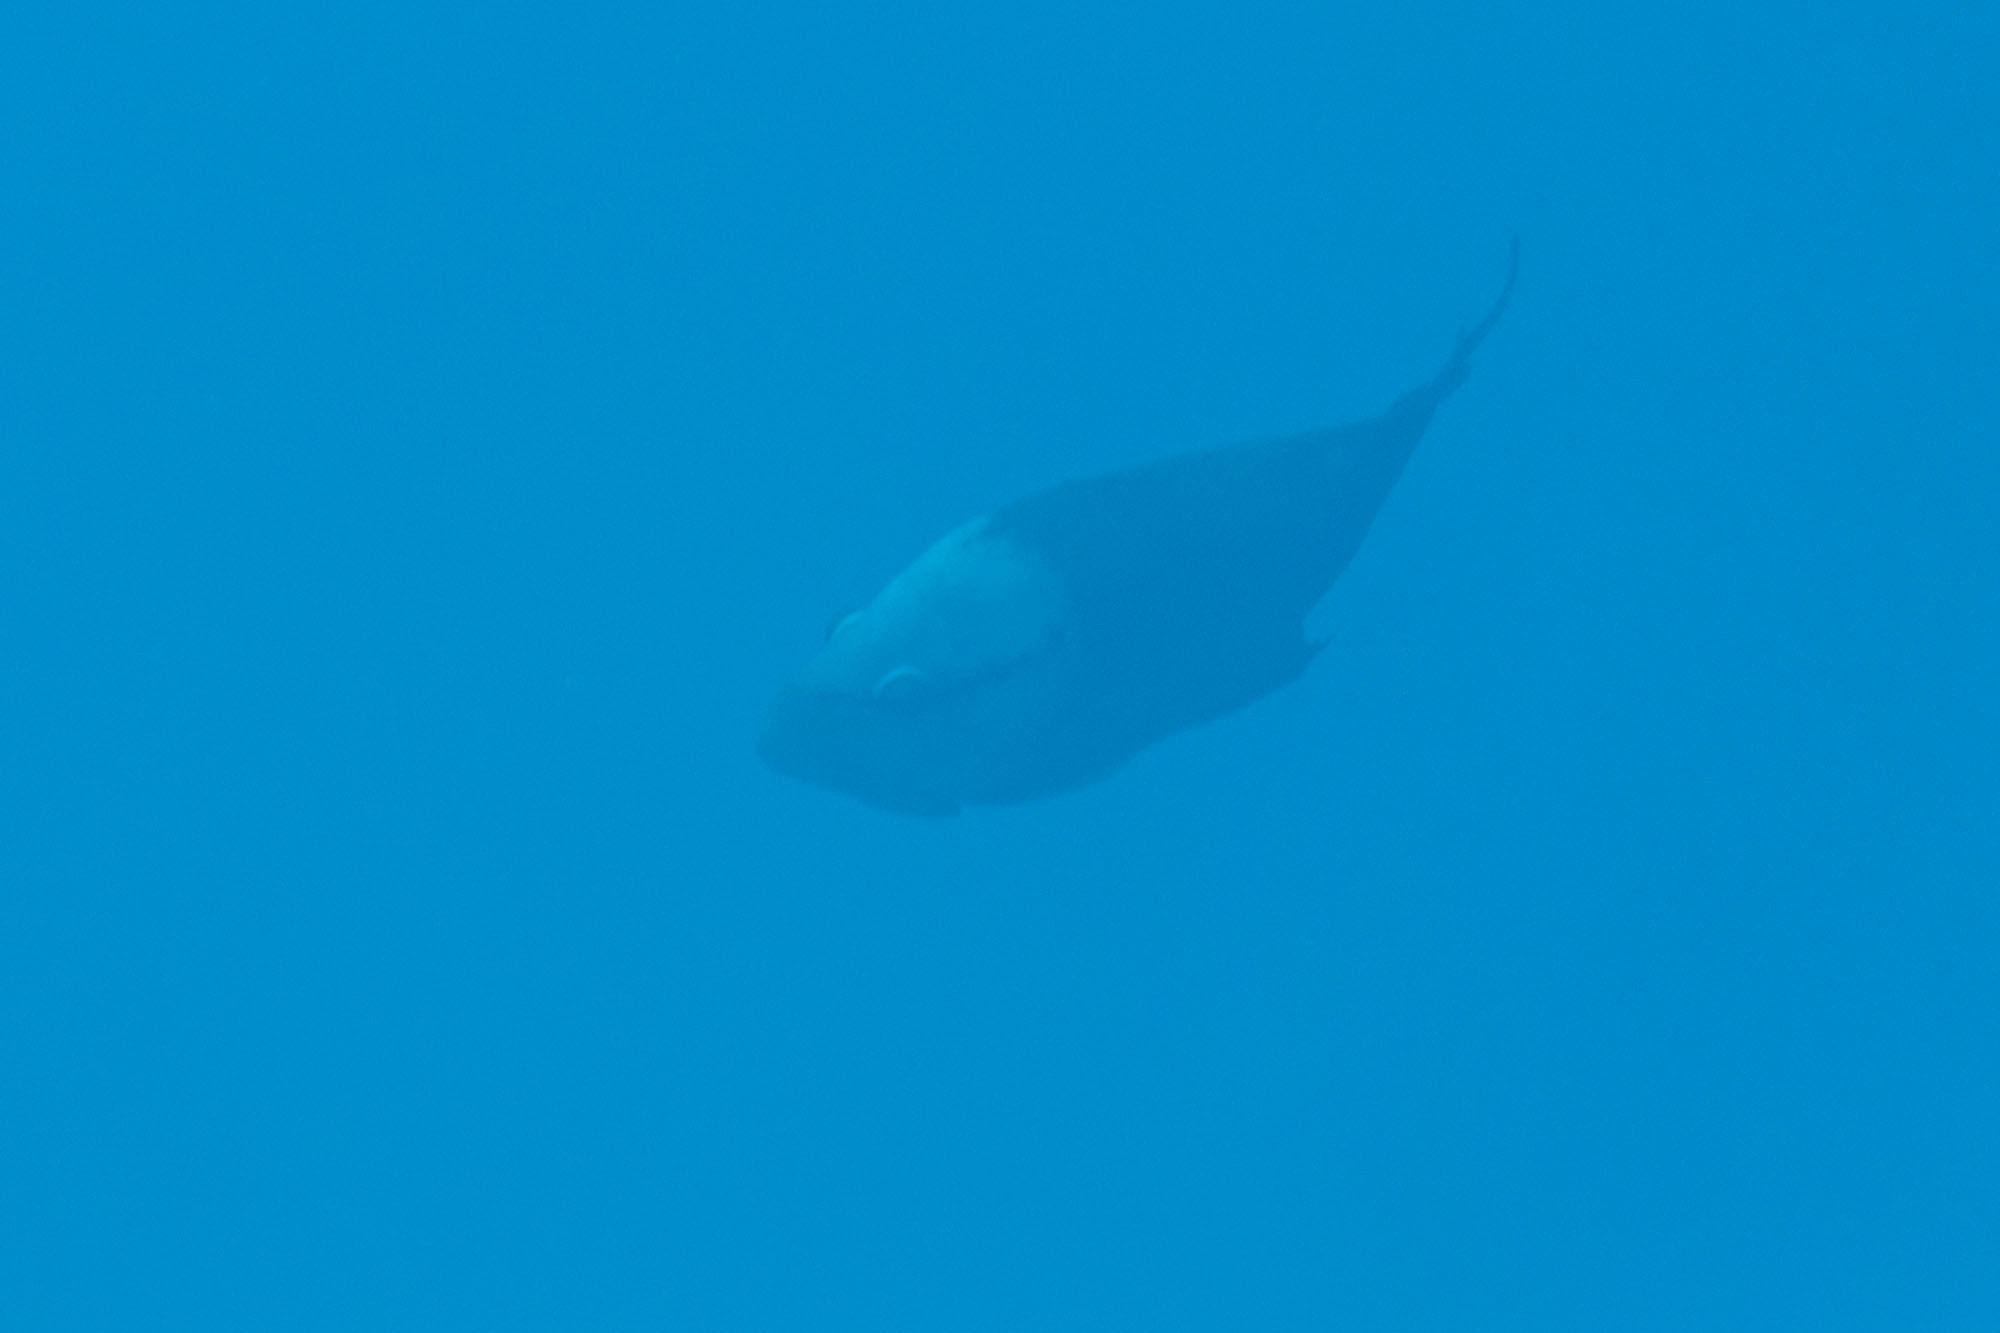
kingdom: Animalia
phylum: Chordata
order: Perciformes
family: Labridae
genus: Epibulus
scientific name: Epibulus insidiator
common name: Slingjaw wrasse
